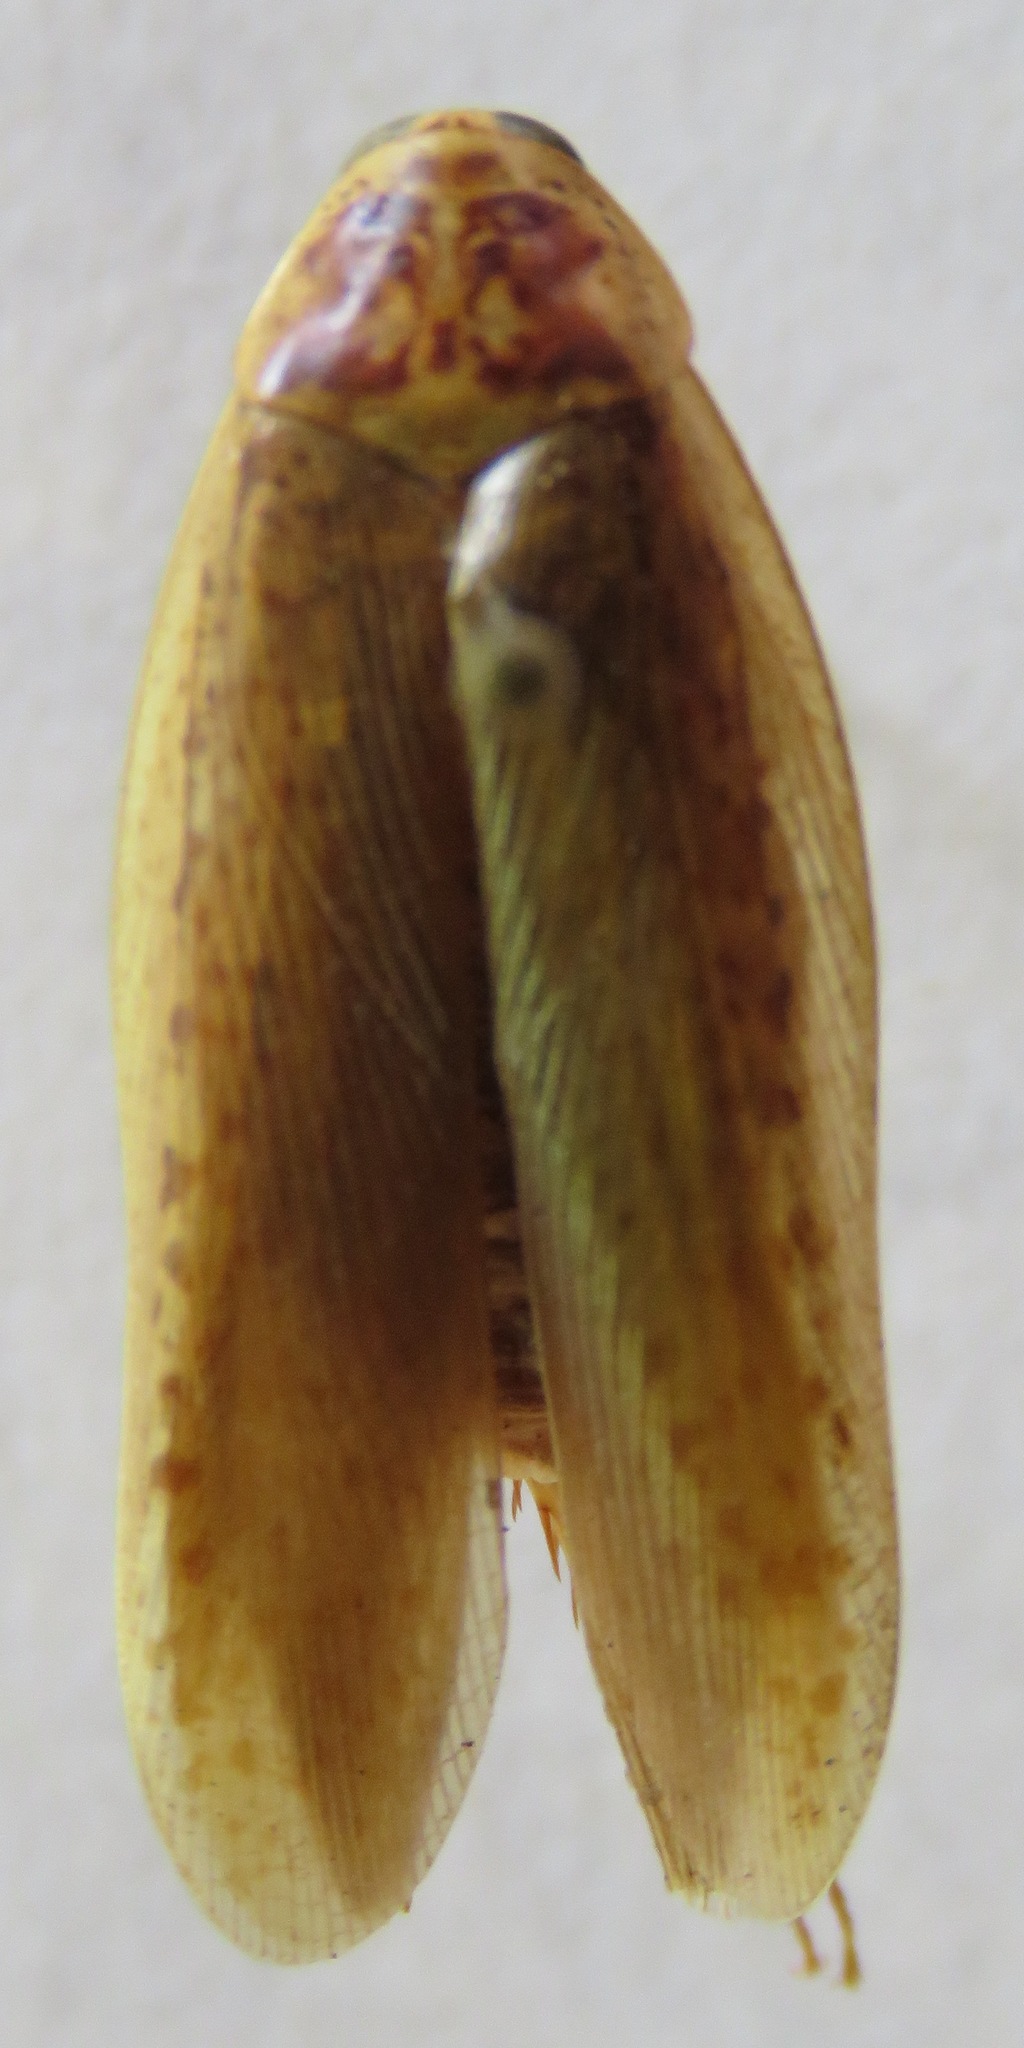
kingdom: Animalia
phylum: Arthropoda
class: Insecta
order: Blattodea
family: Blaberidae
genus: Epilampra
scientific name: Epilampra mexicana
